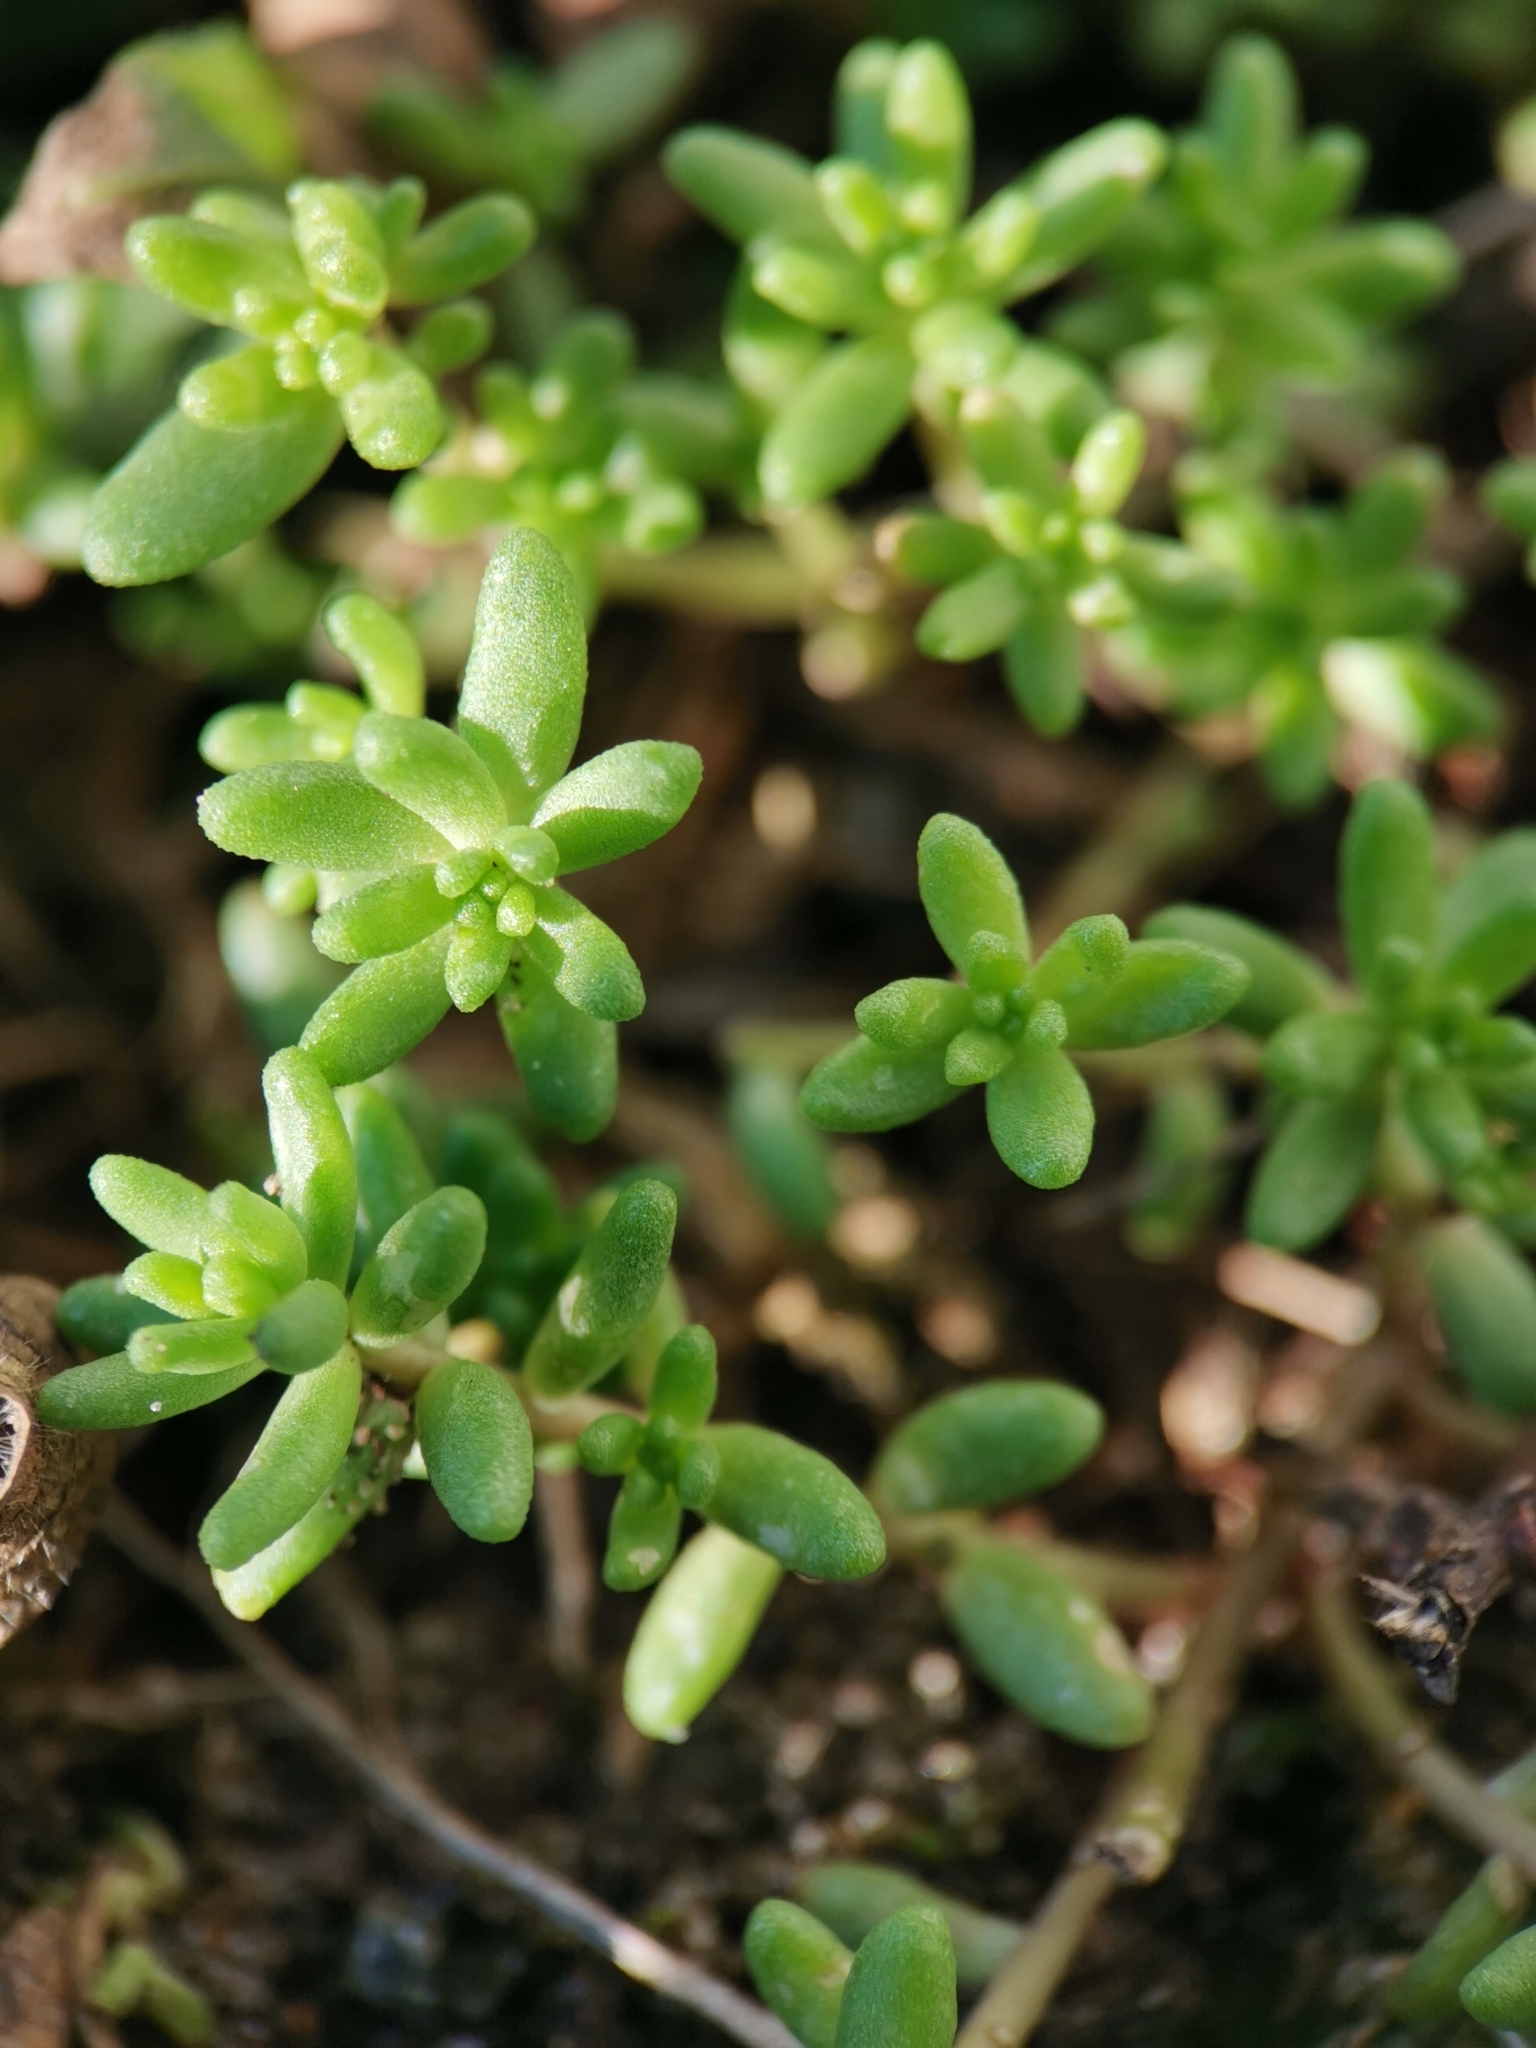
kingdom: Plantae
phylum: Tracheophyta
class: Magnoliopsida
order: Saxifragales
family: Crassulaceae
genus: Sedum
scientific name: Sedum album
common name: White stonecrop
